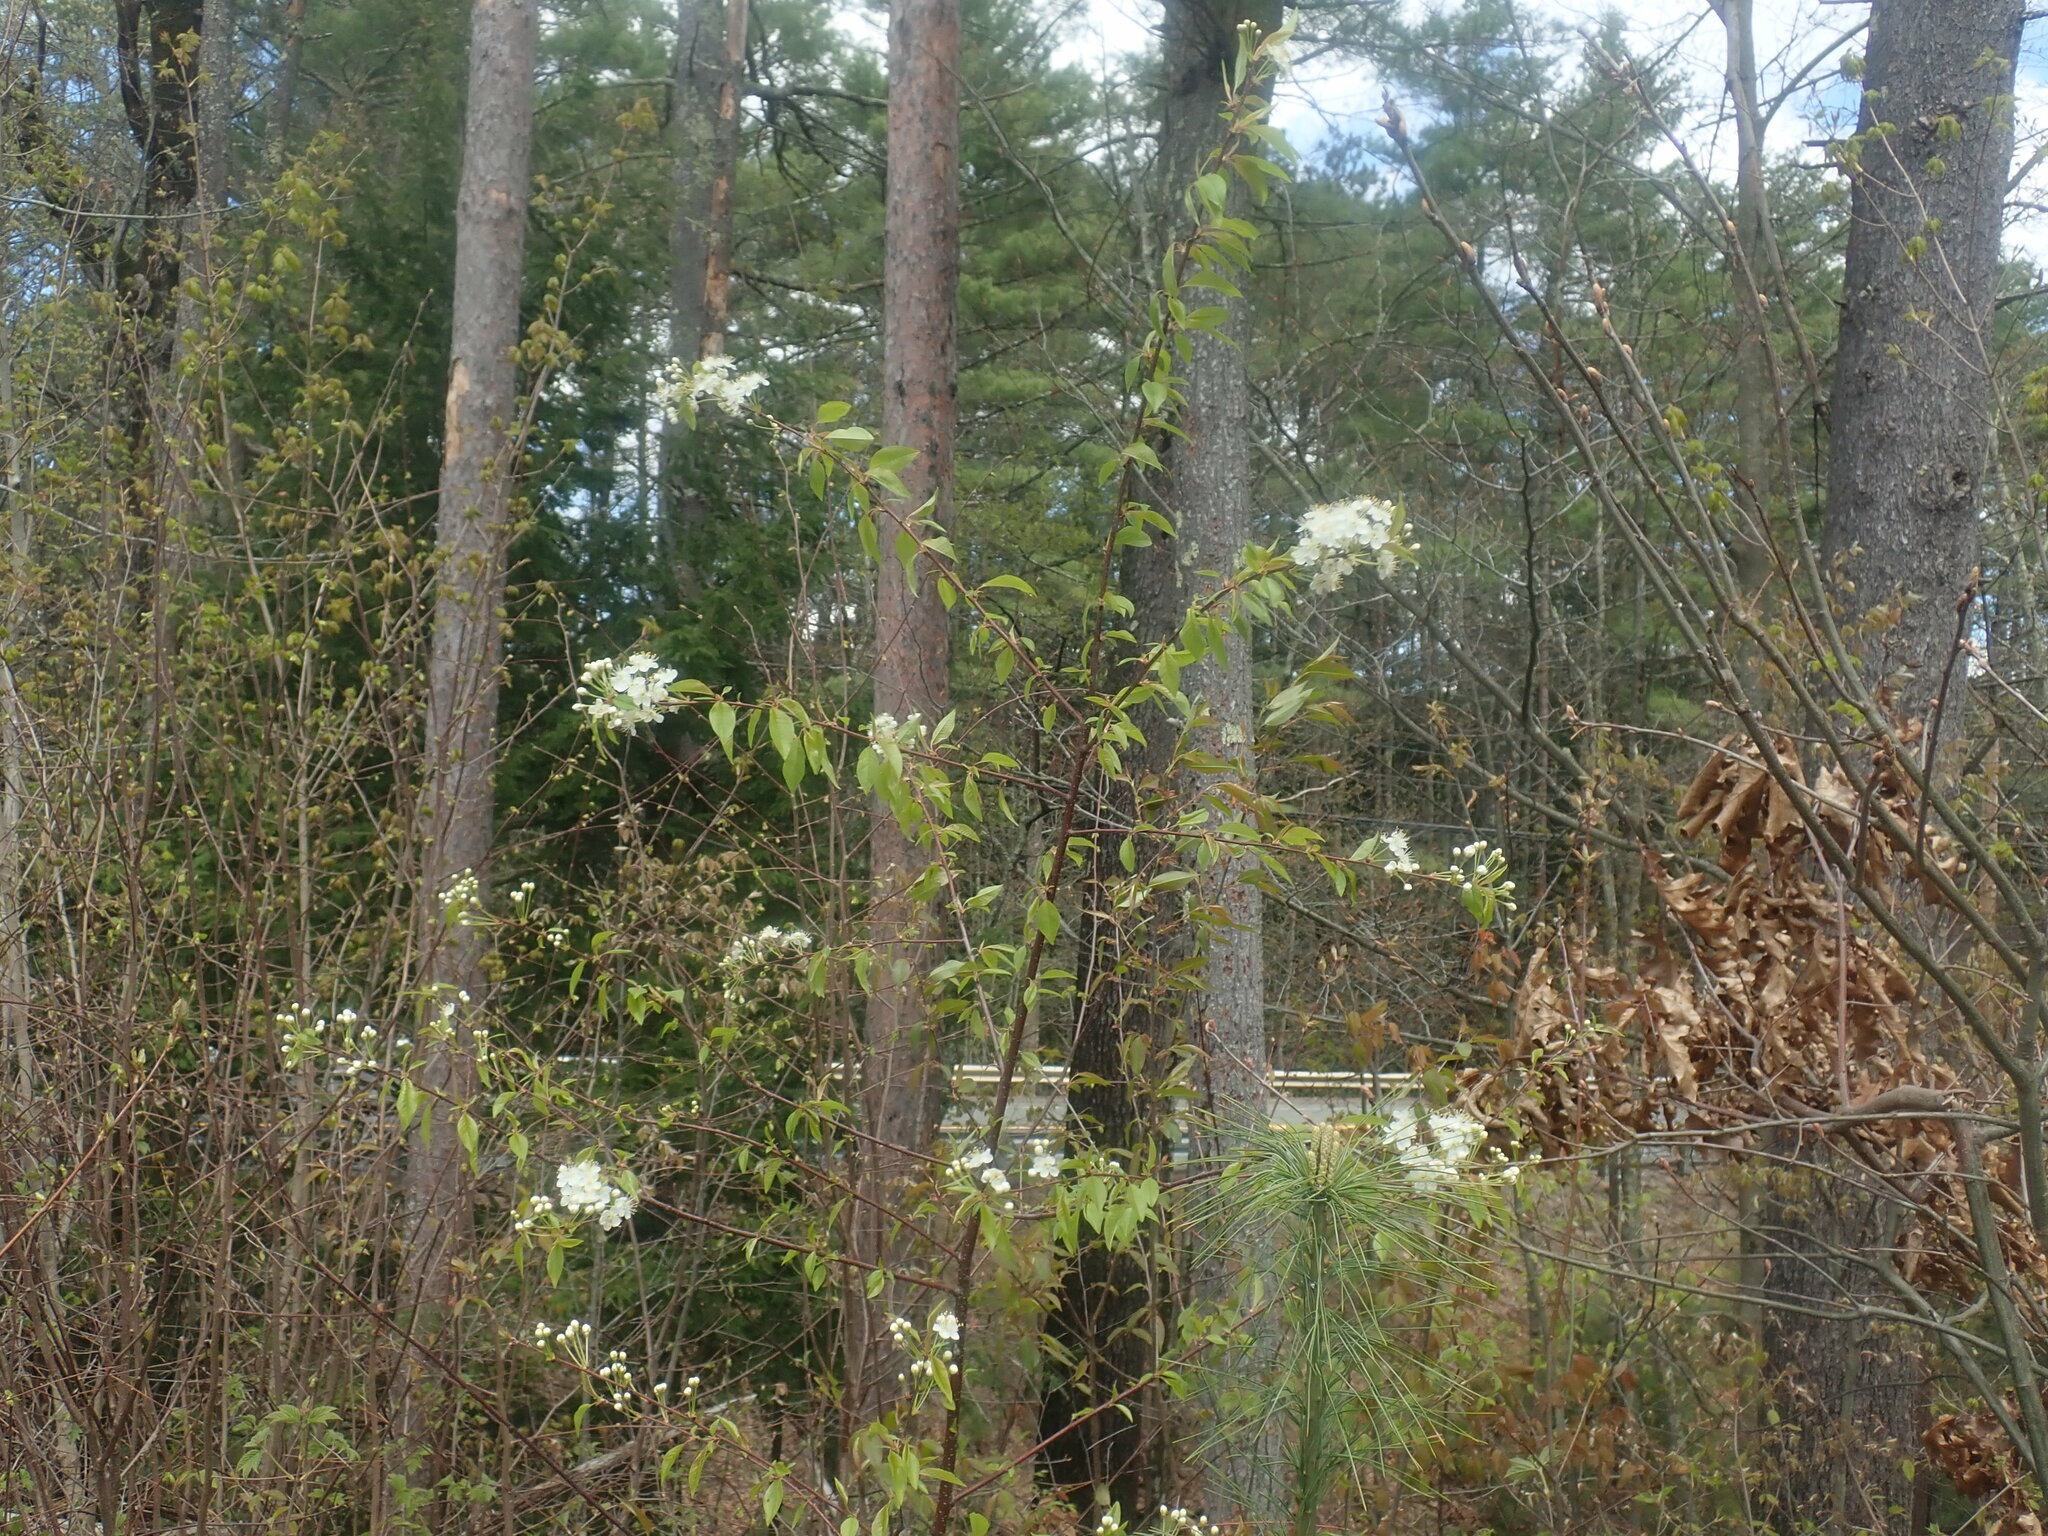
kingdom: Plantae
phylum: Tracheophyta
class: Magnoliopsida
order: Rosales
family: Rosaceae
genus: Prunus
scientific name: Prunus pensylvanica
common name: Pin cherry
